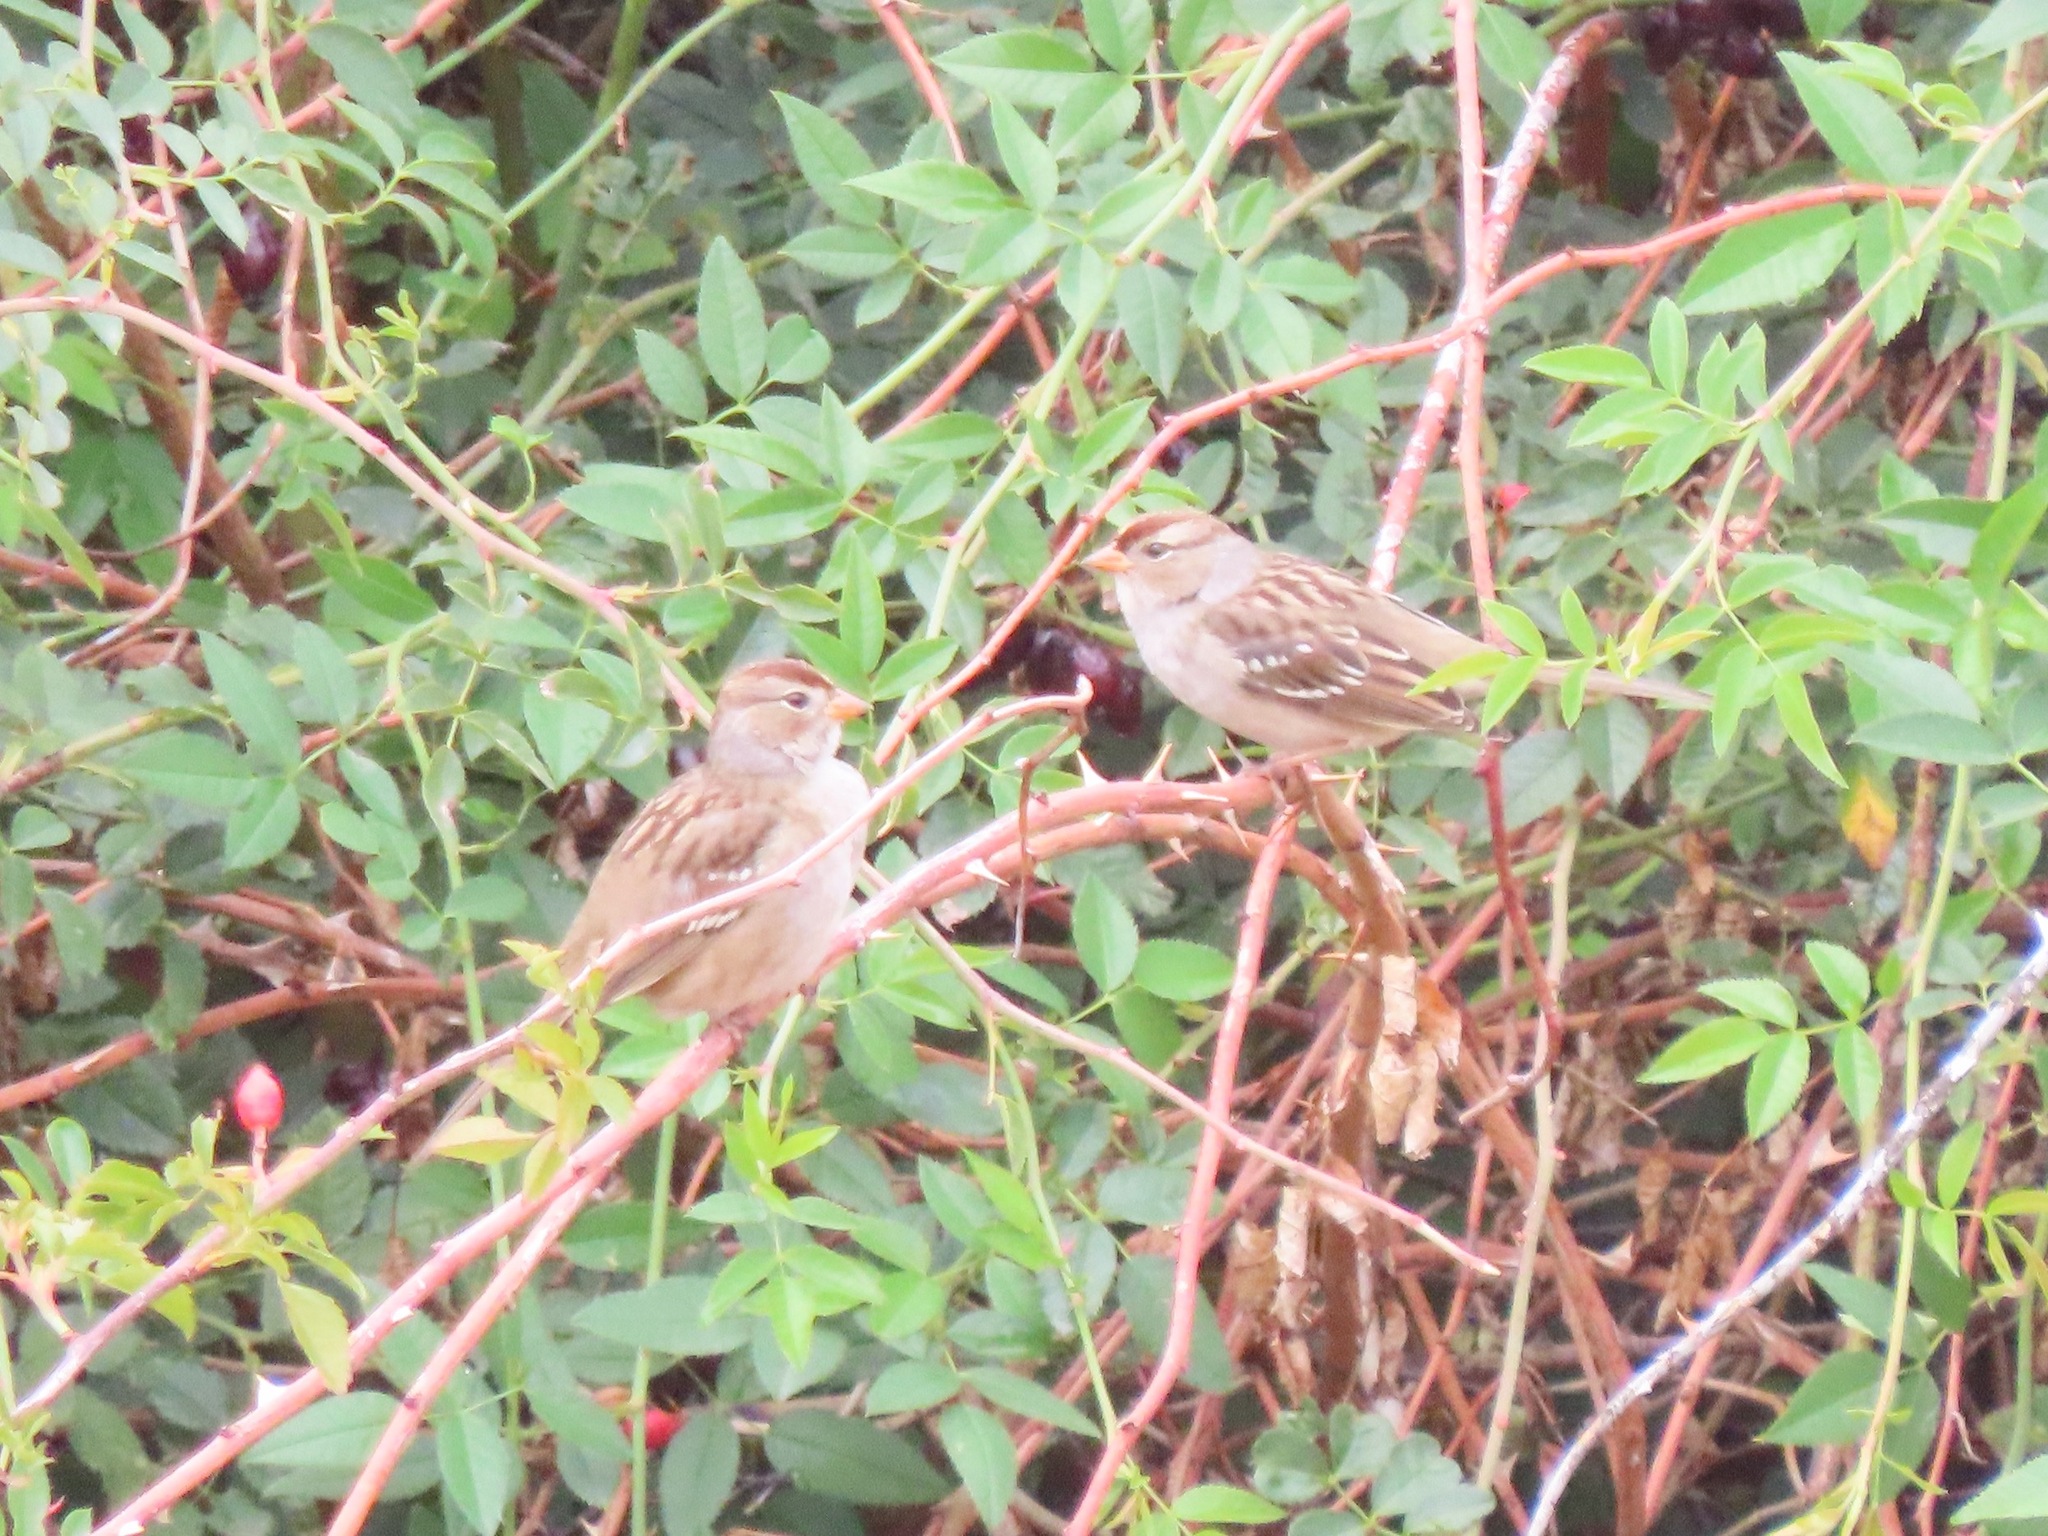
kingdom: Animalia
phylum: Chordata
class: Aves
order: Passeriformes
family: Passerellidae
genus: Zonotrichia
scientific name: Zonotrichia leucophrys
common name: White-crowned sparrow
